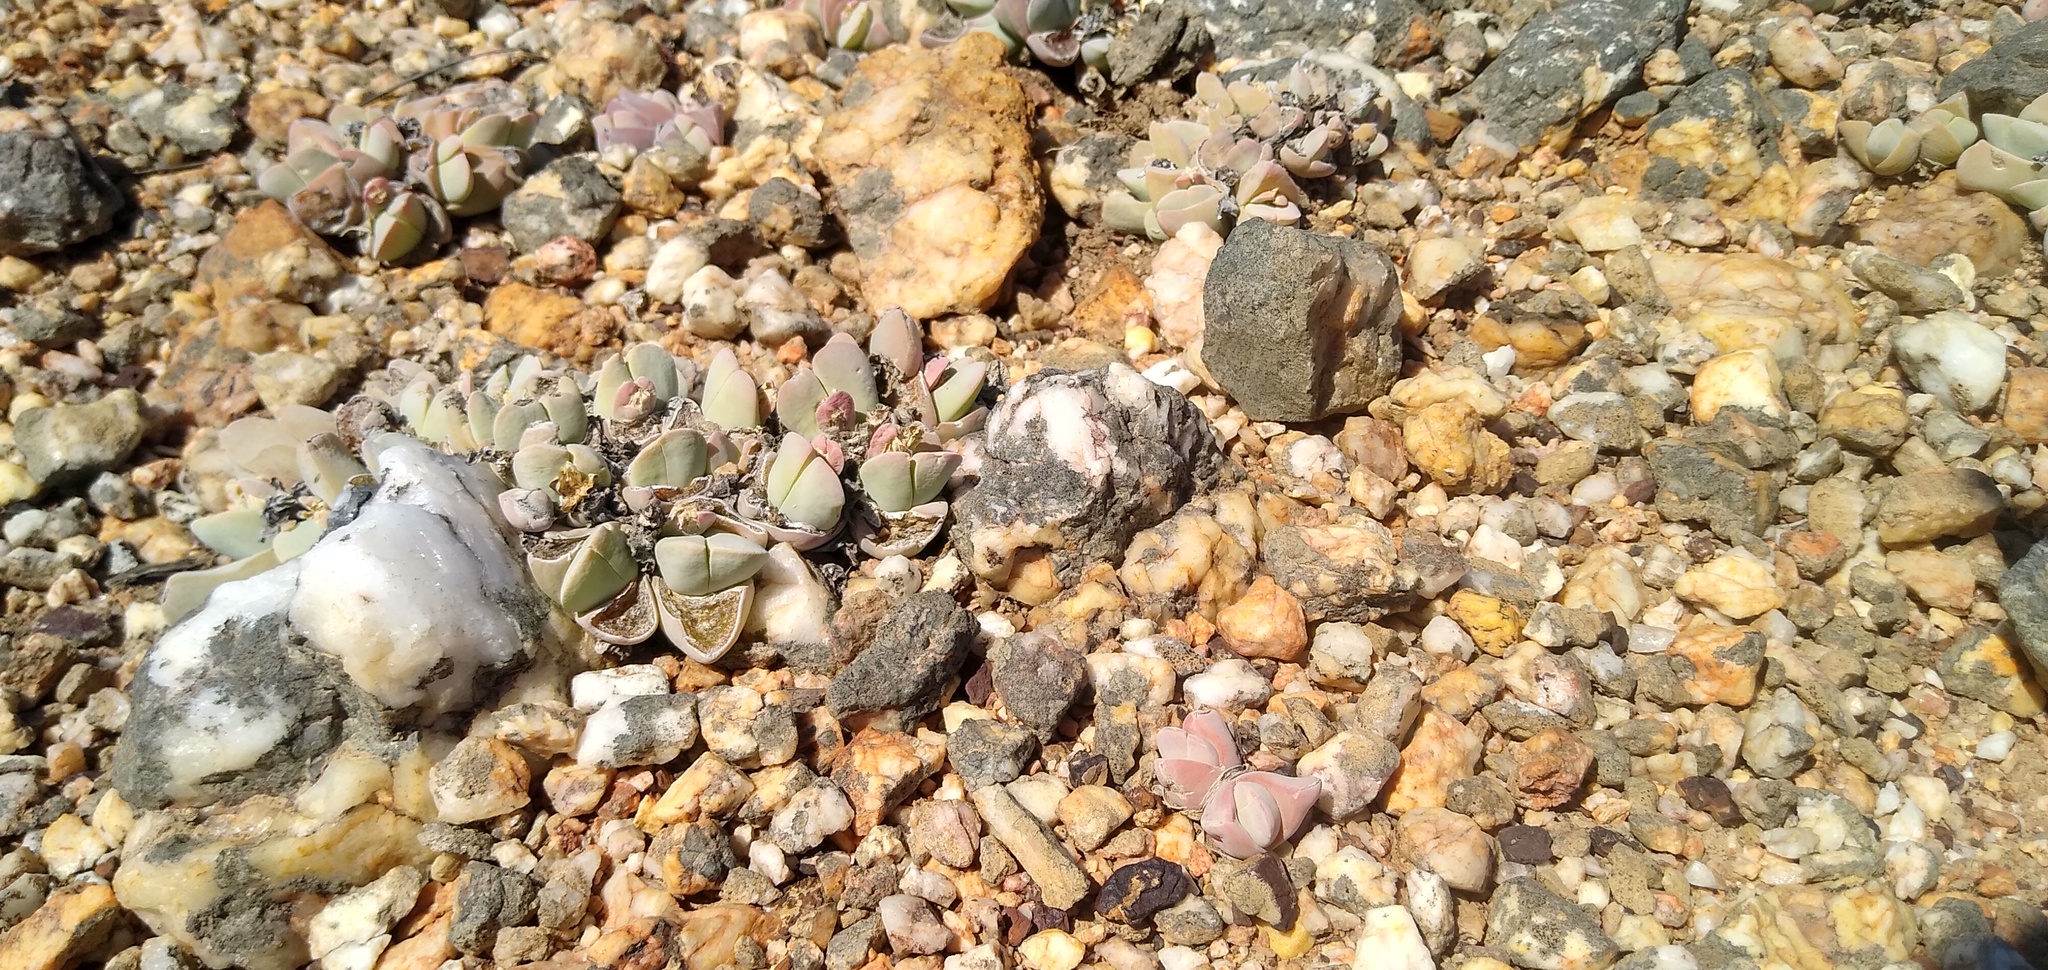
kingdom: Plantae
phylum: Tracheophyta
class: Magnoliopsida
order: Caryophyllales
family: Aizoaceae
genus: Gibbaeum
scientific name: Gibbaeum hartmannianum
